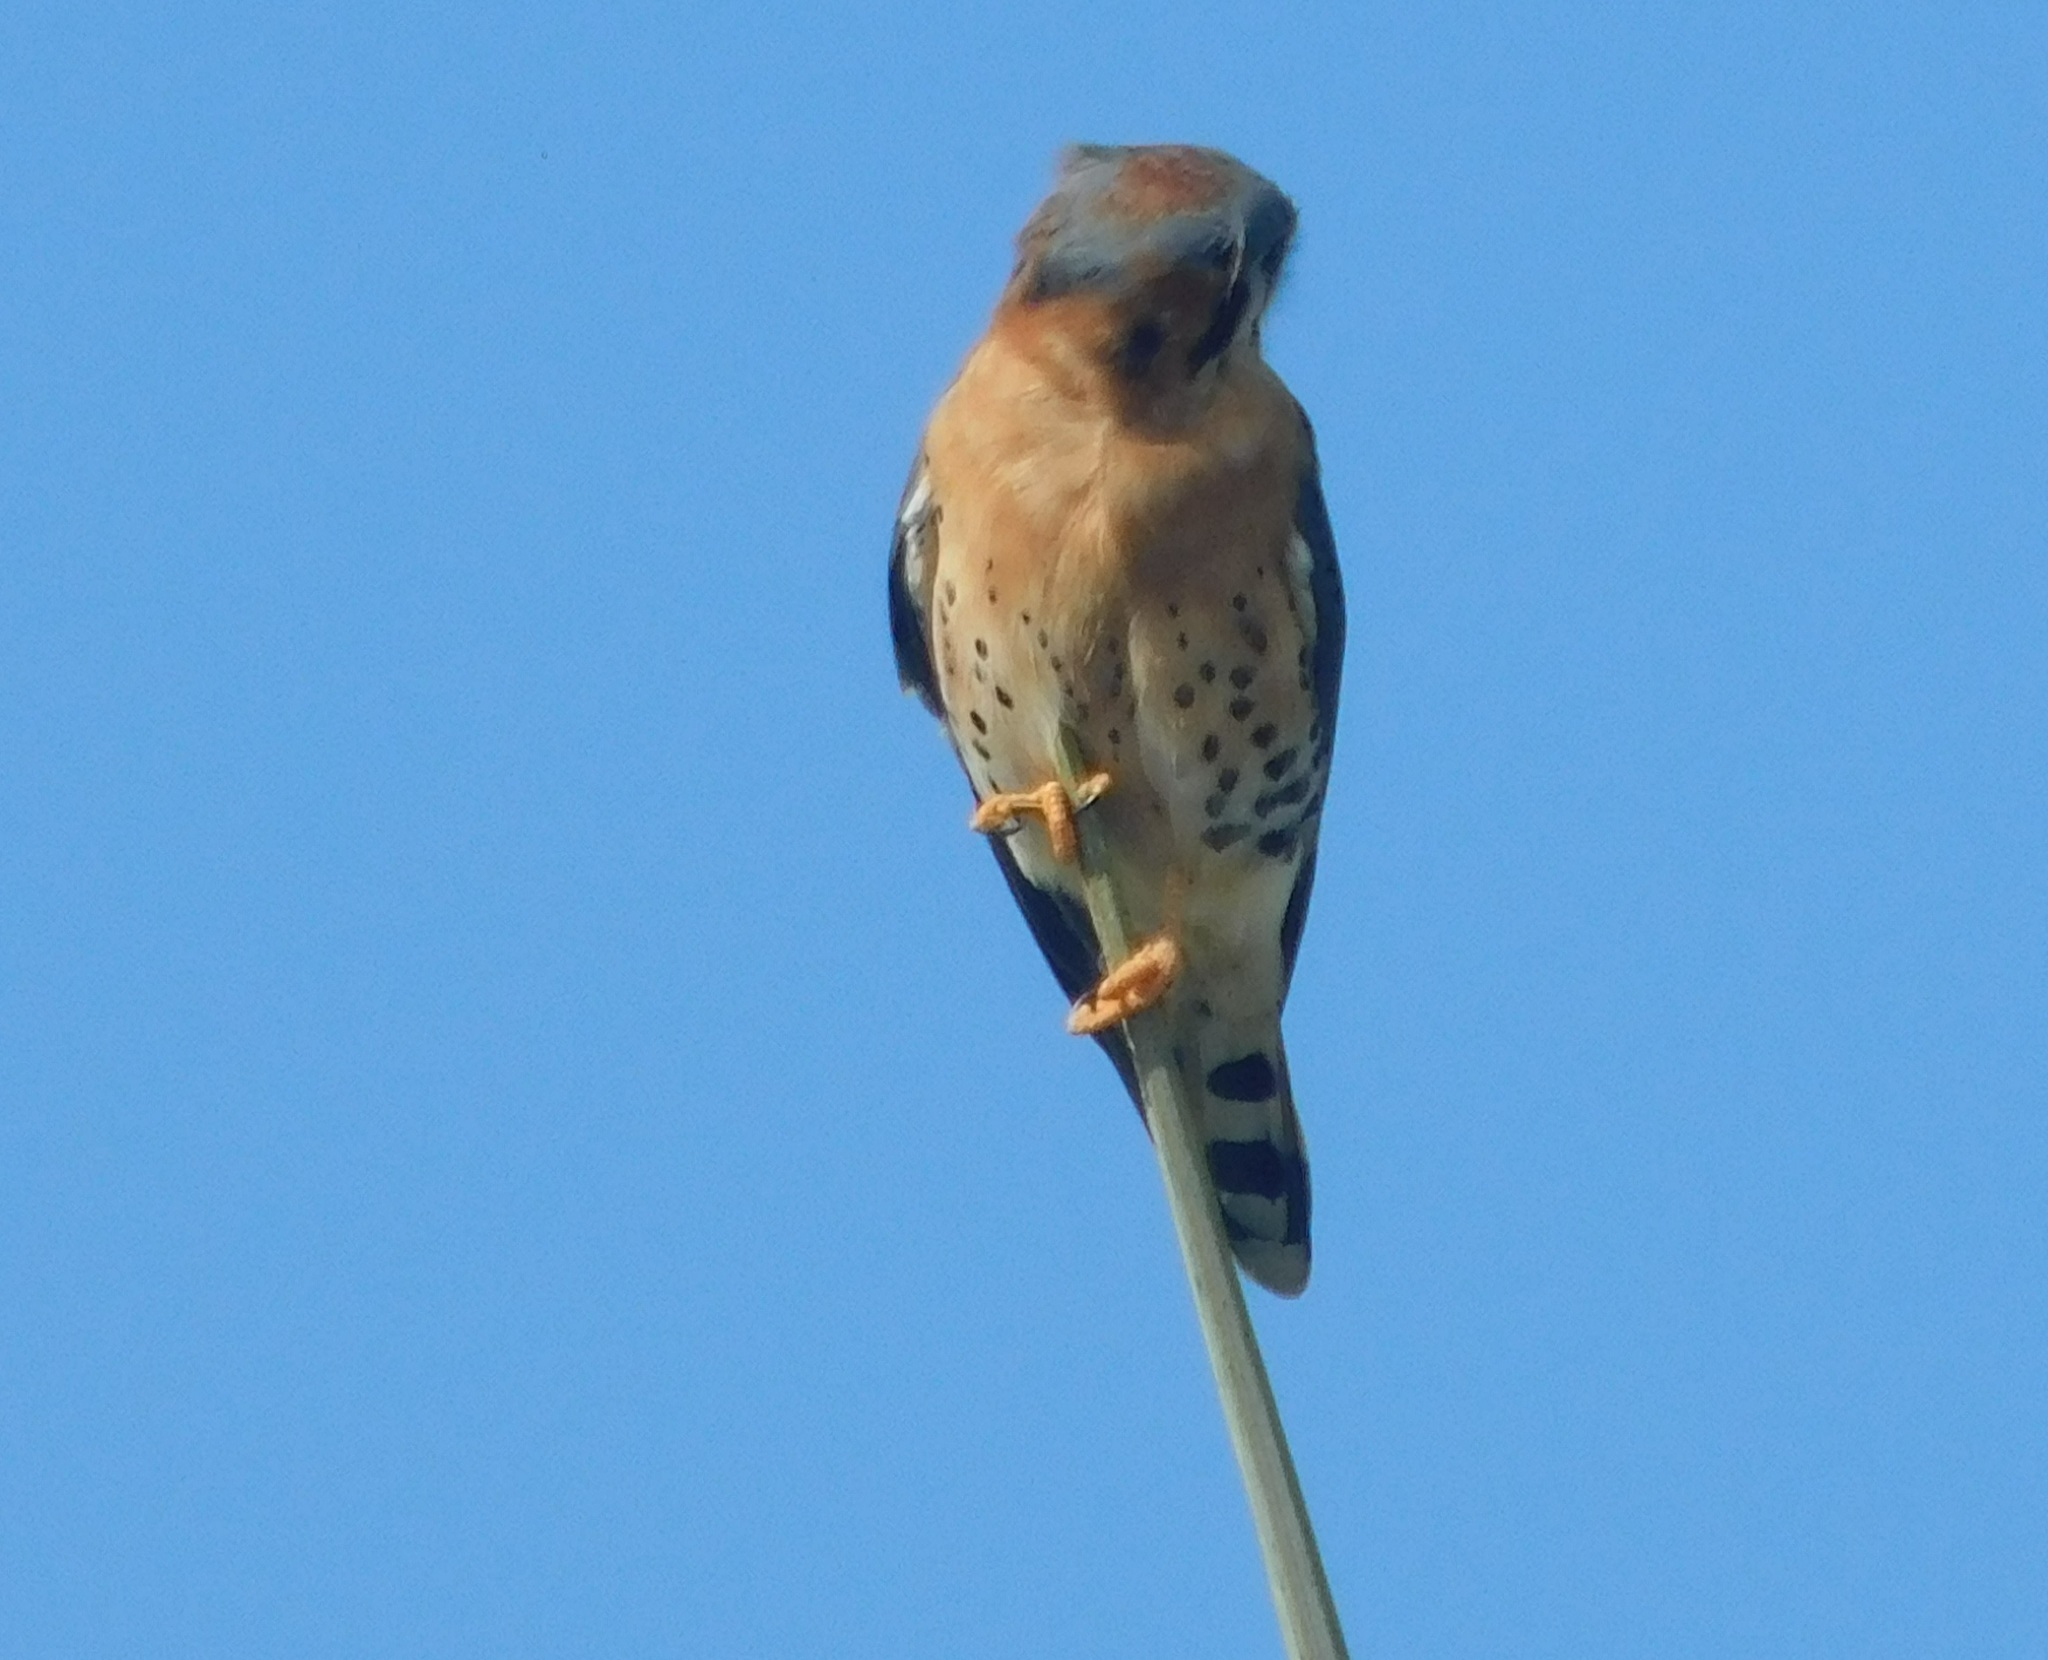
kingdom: Animalia
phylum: Chordata
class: Aves
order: Falconiformes
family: Falconidae
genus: Falco
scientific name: Falco sparverius
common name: American kestrel
